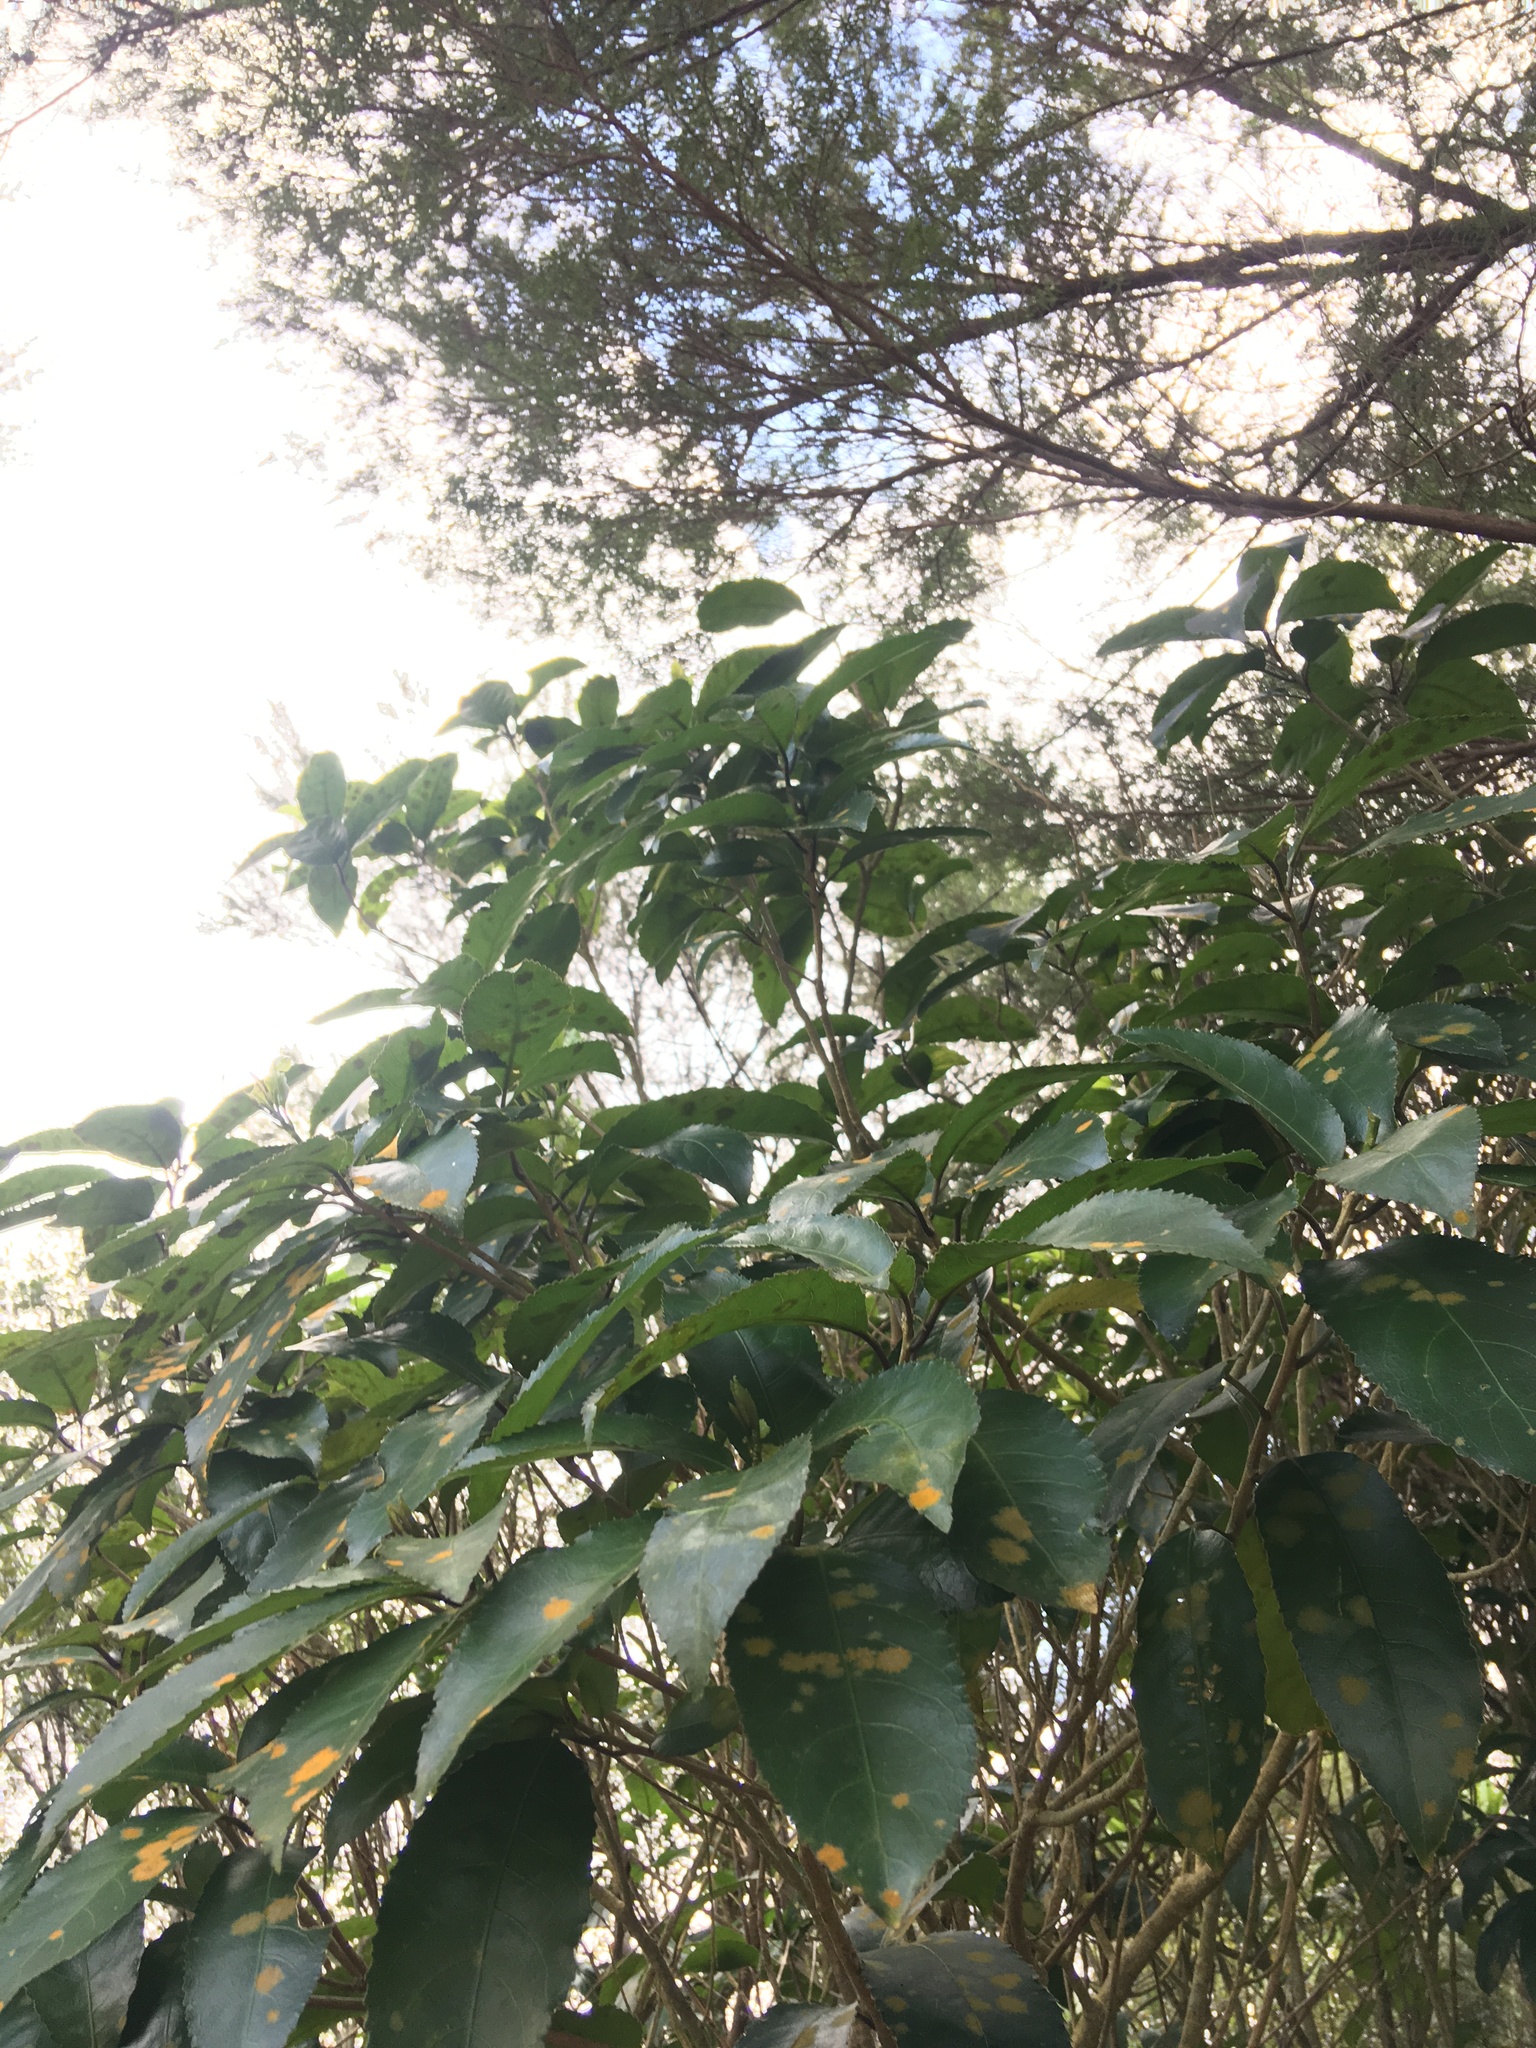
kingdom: Plantae
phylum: Tracheophyta
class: Magnoliopsida
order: Malpighiales
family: Violaceae
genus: Melicytus
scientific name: Melicytus ramiflorus
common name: Mahoe
